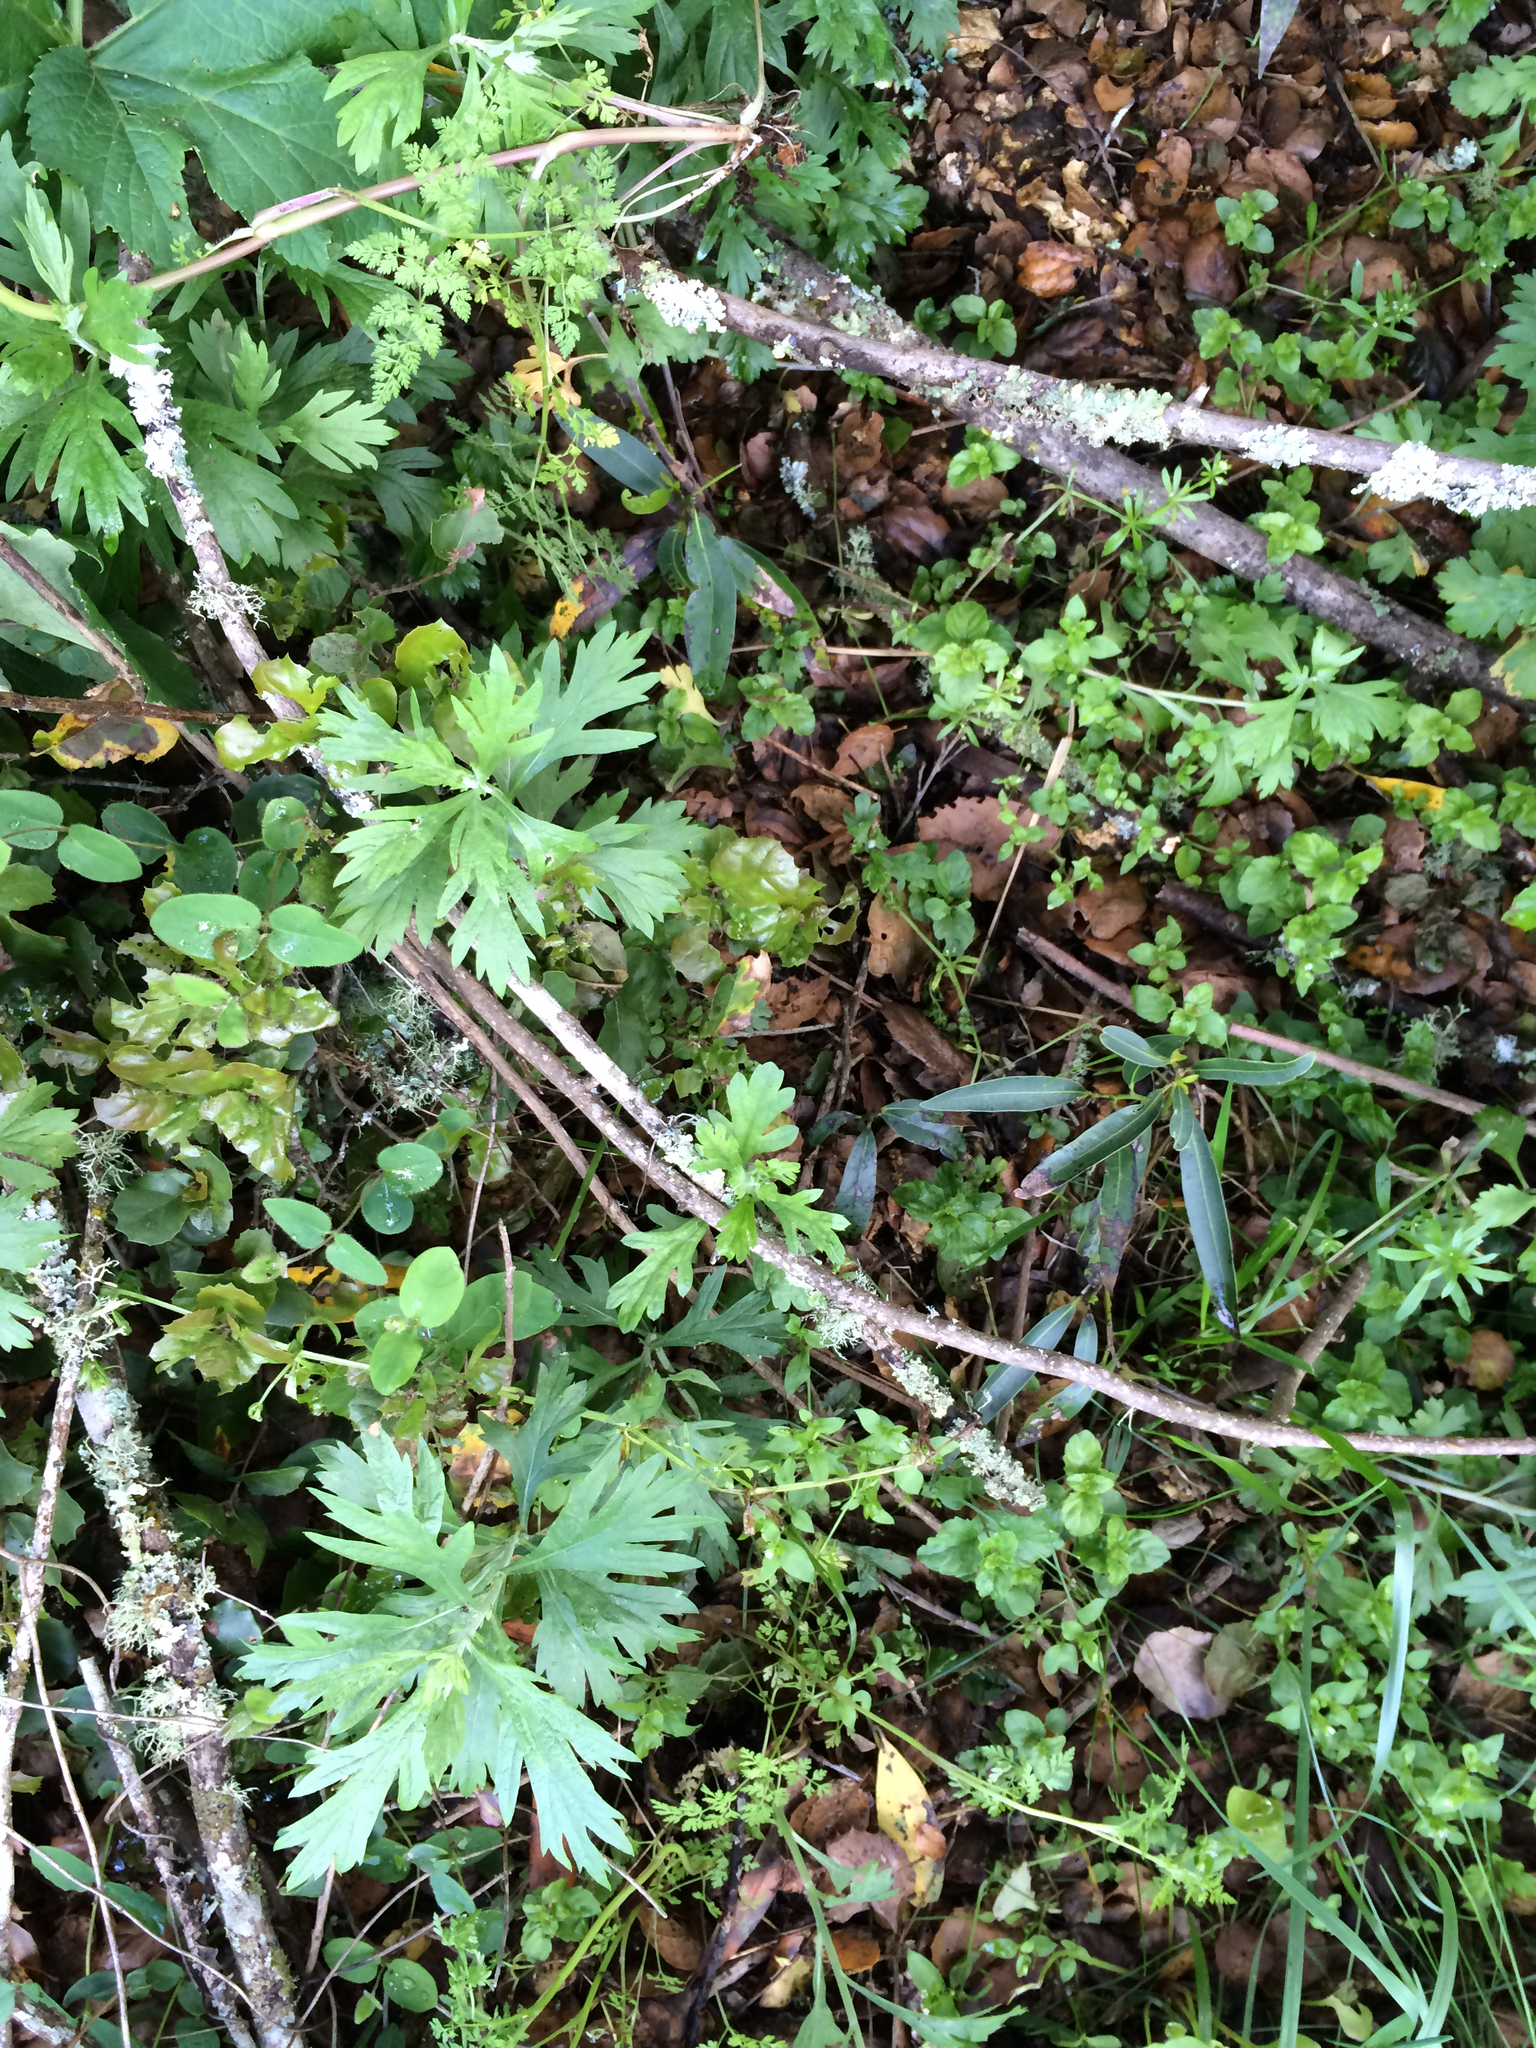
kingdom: Plantae
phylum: Tracheophyta
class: Magnoliopsida
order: Lamiales
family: Lamiaceae
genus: Micromeria
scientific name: Micromeria douglasii
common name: Yerba buena
